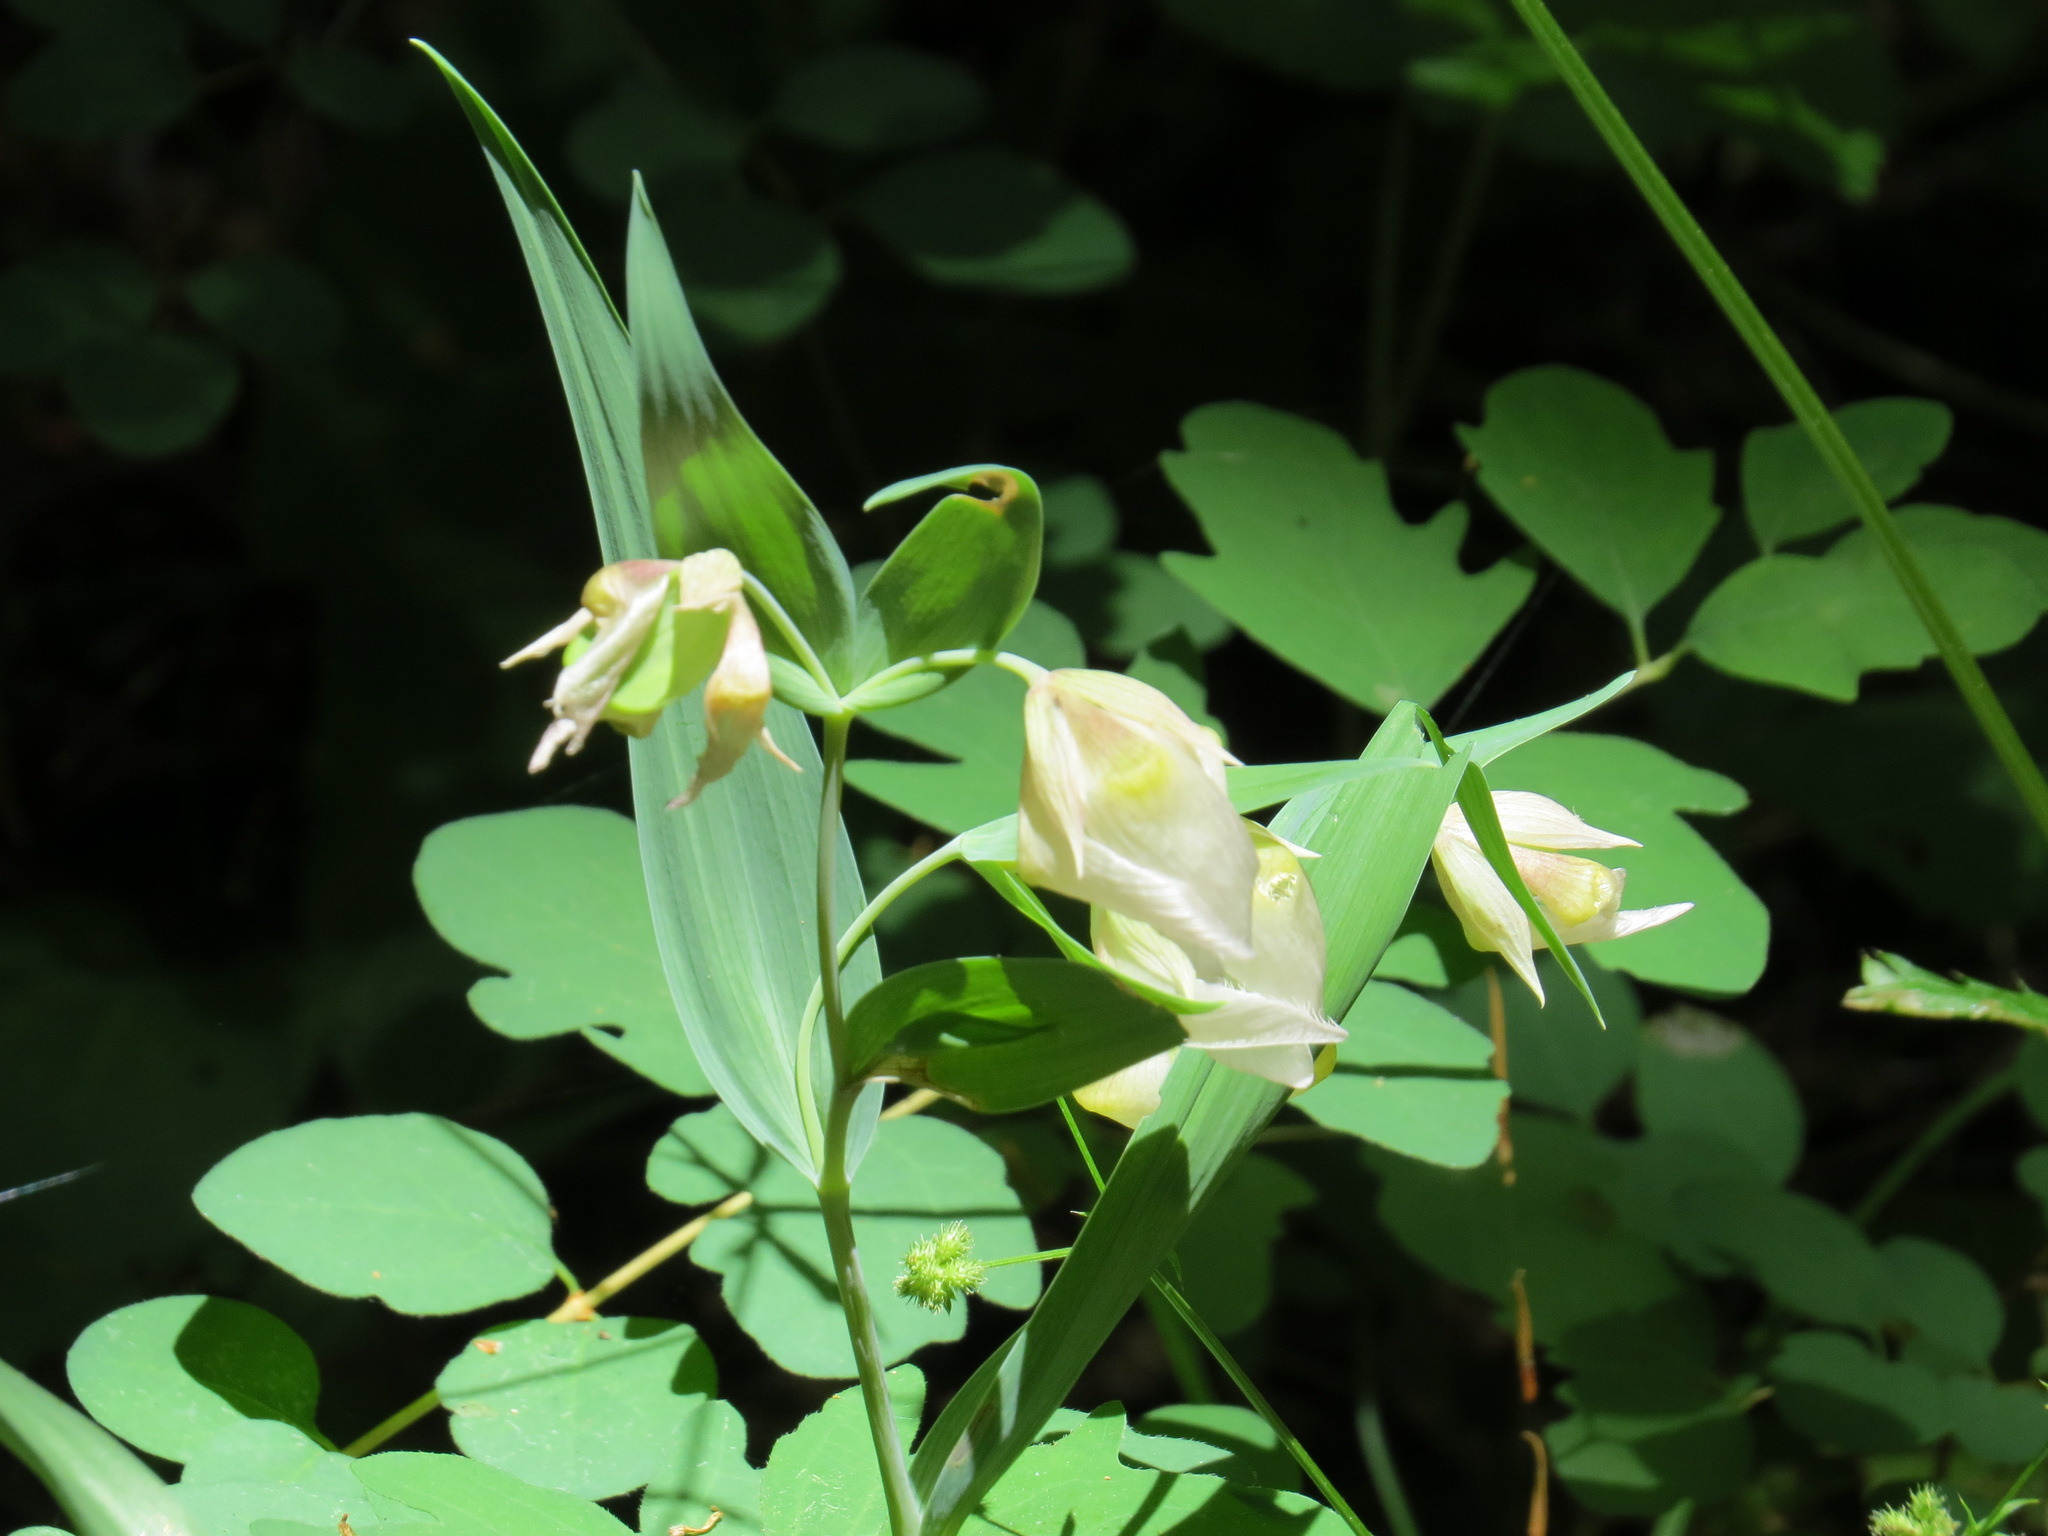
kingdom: Plantae
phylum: Tracheophyta
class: Liliopsida
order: Liliales
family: Liliaceae
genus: Calochortus
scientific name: Calochortus albus
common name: Fairy-lantern
